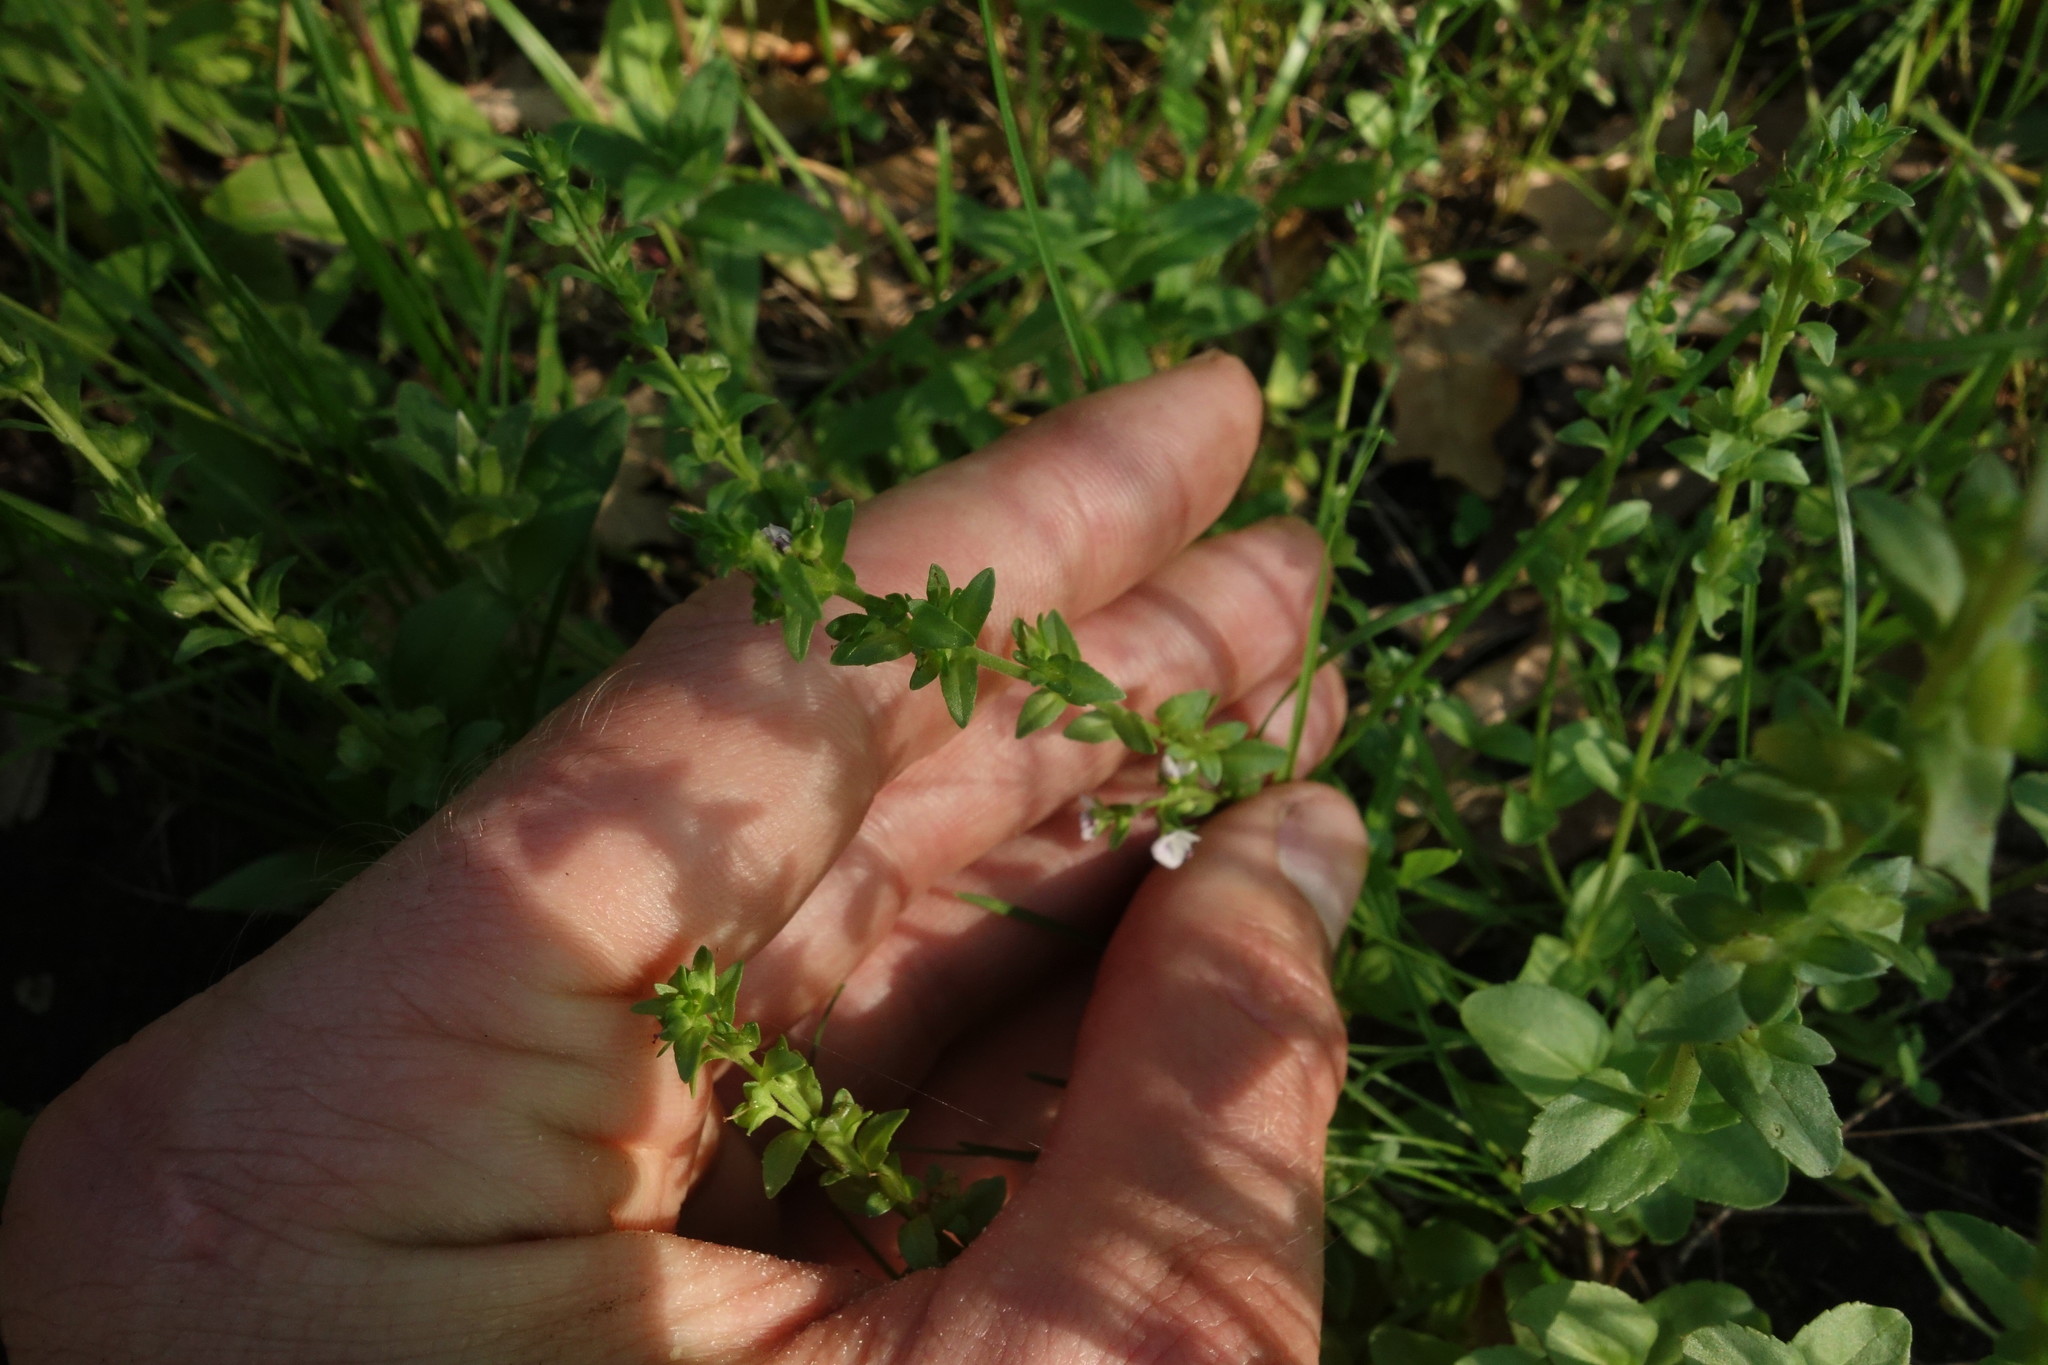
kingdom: Plantae
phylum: Tracheophyta
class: Magnoliopsida
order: Lamiales
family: Plantaginaceae
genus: Veronica
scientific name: Veronica serpyllifolia
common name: Thyme-leaved speedwell
